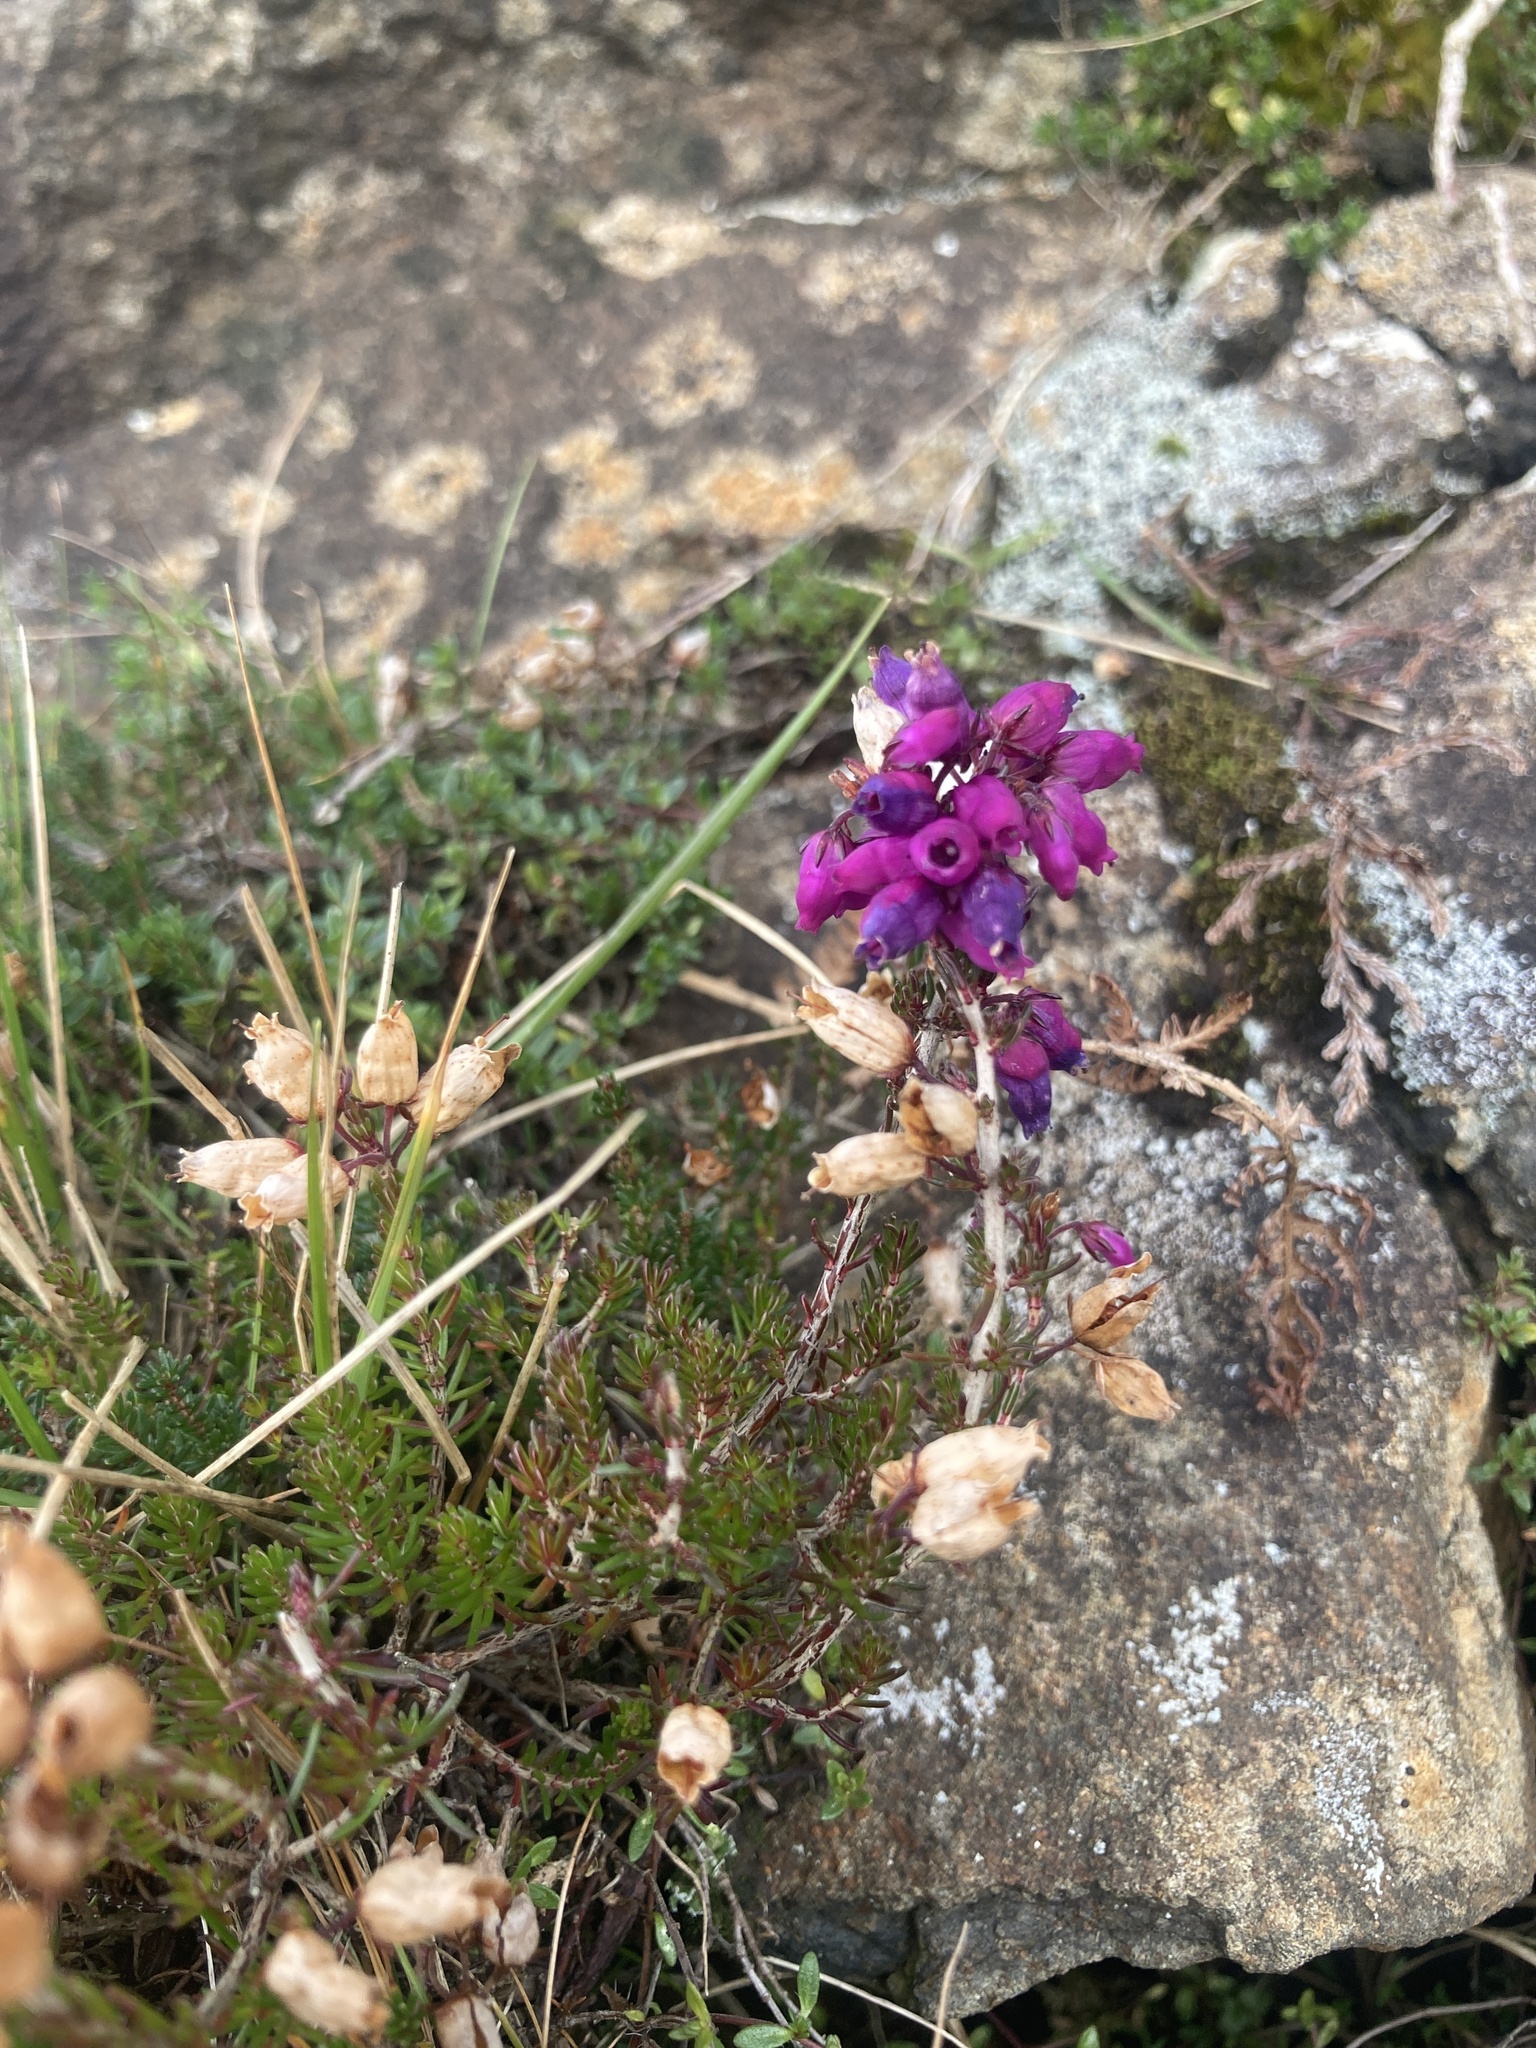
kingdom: Plantae
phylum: Tracheophyta
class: Magnoliopsida
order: Ericales
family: Ericaceae
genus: Erica
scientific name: Erica cinerea
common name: Bell heather
